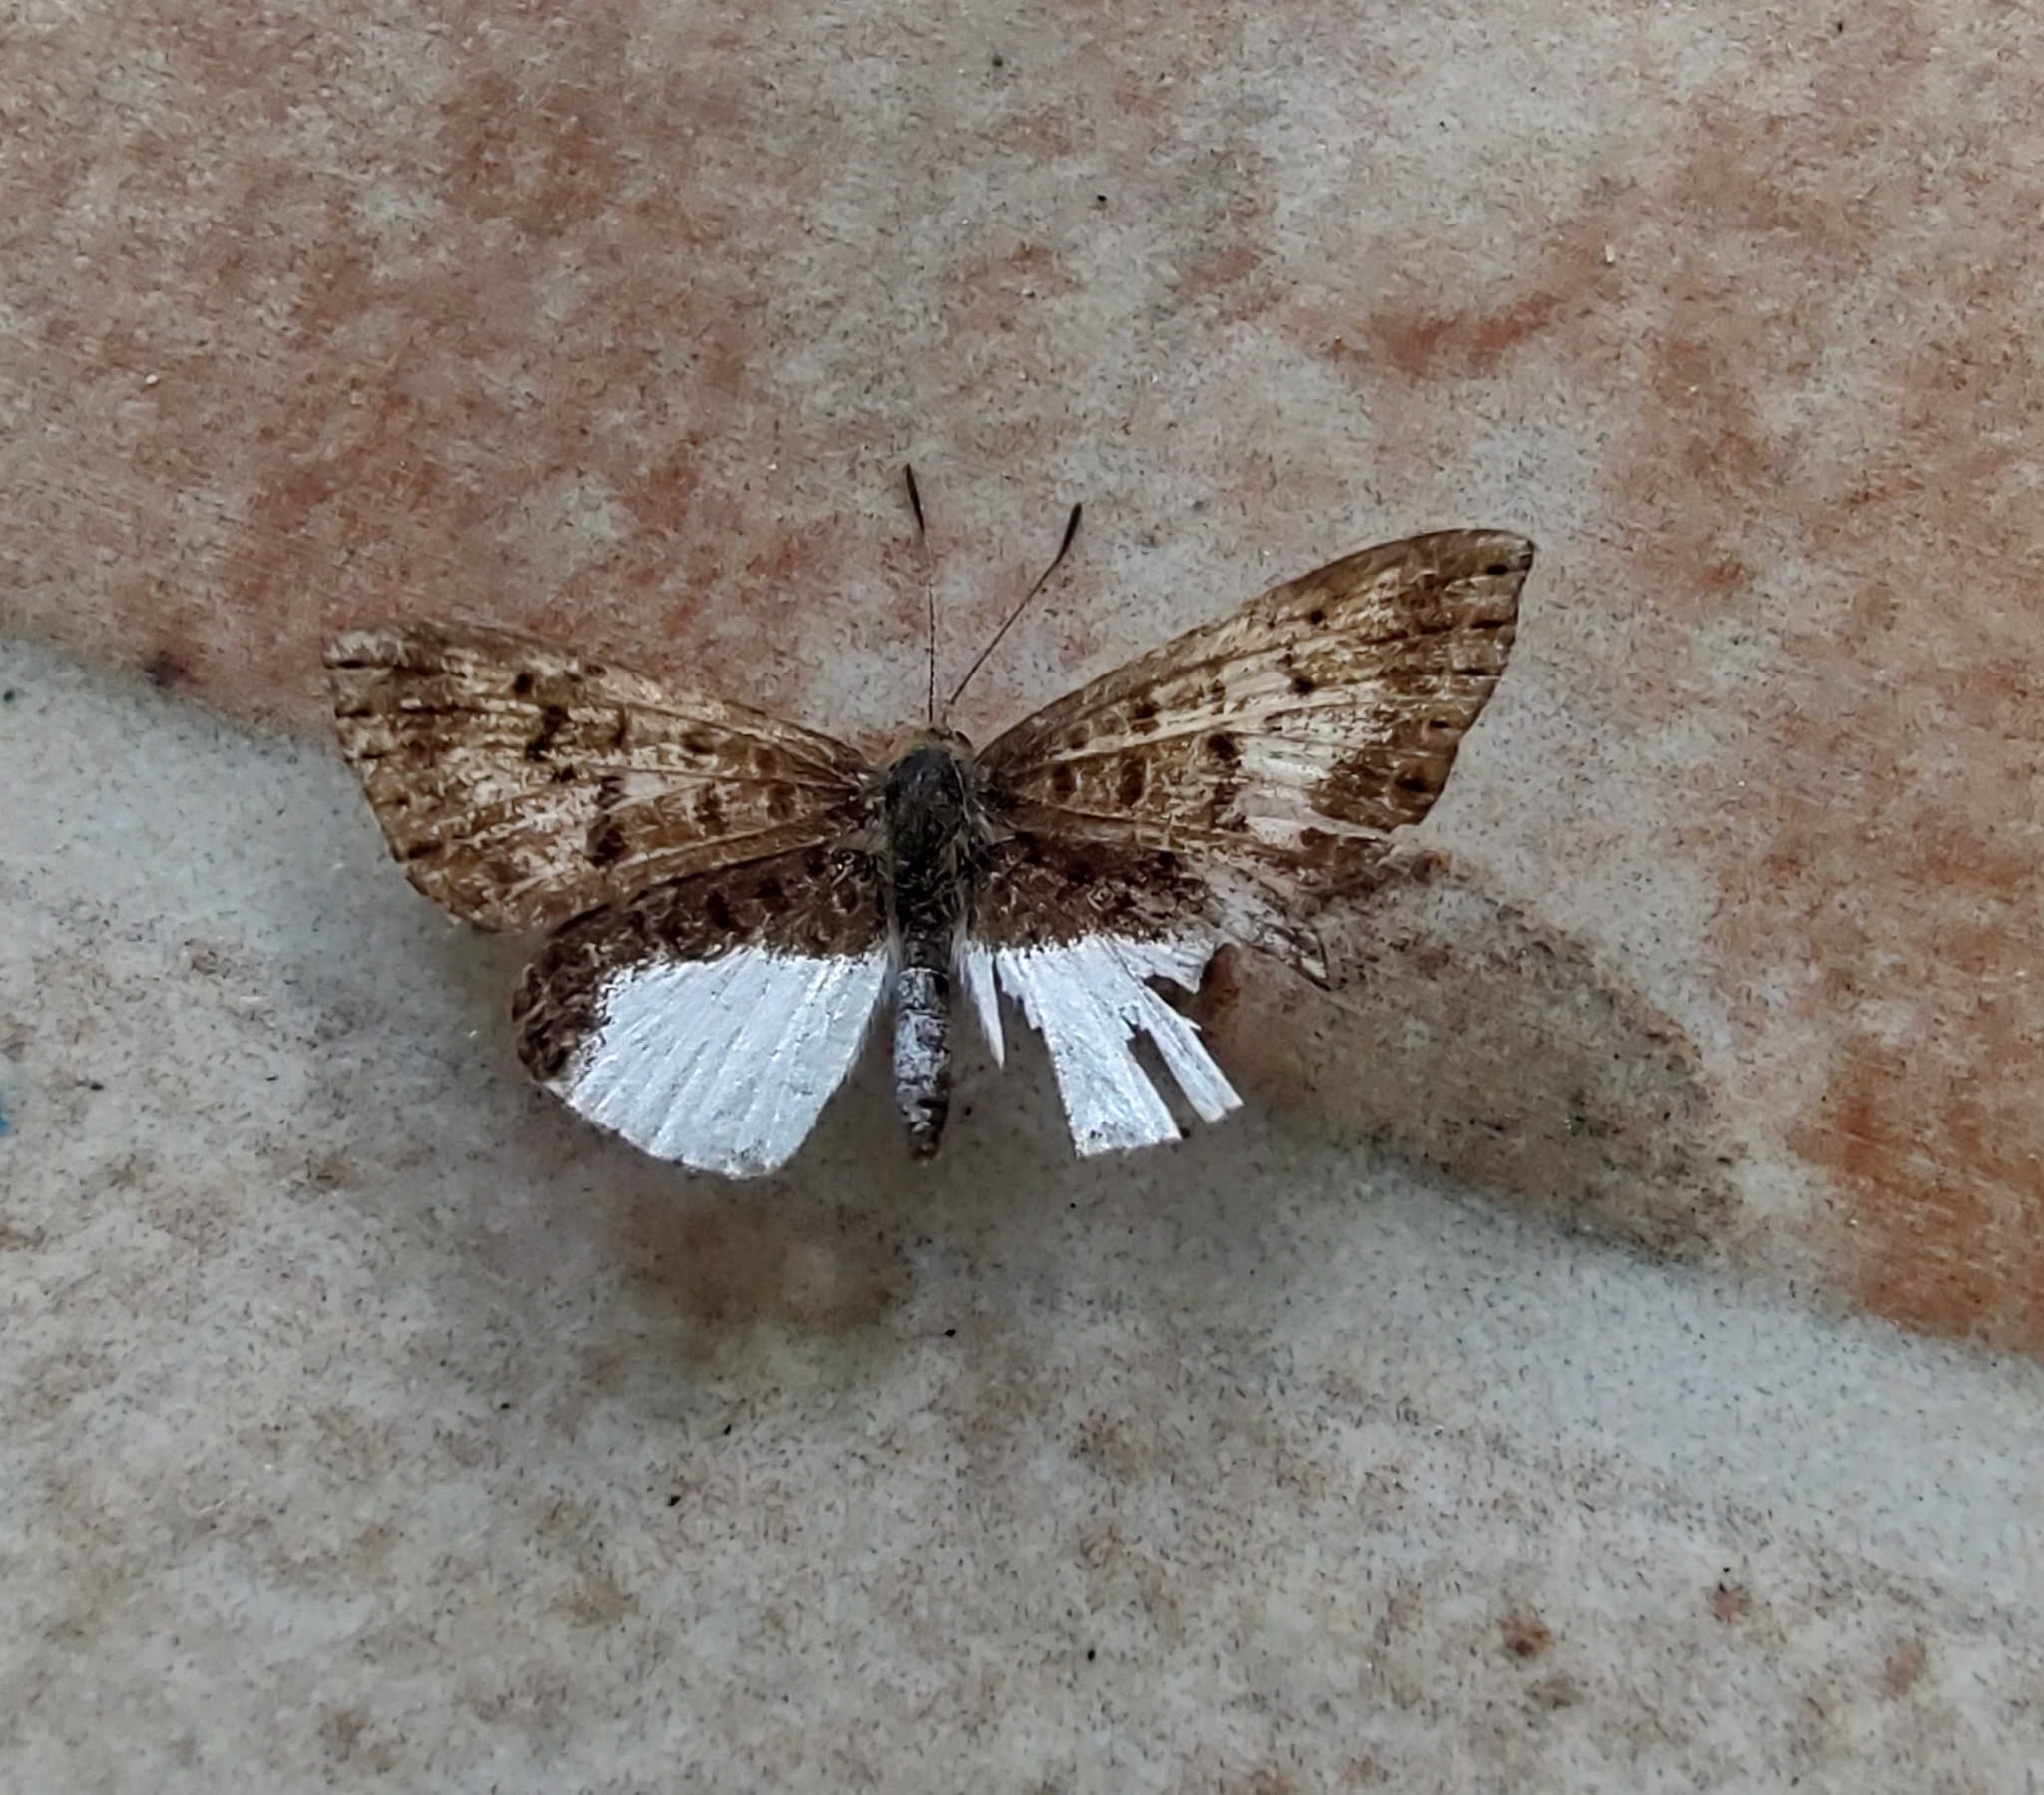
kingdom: Animalia
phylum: Arthropoda
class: Insecta
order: Lepidoptera
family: Riodinidae
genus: Catocyclotis
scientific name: Catocyclotis
